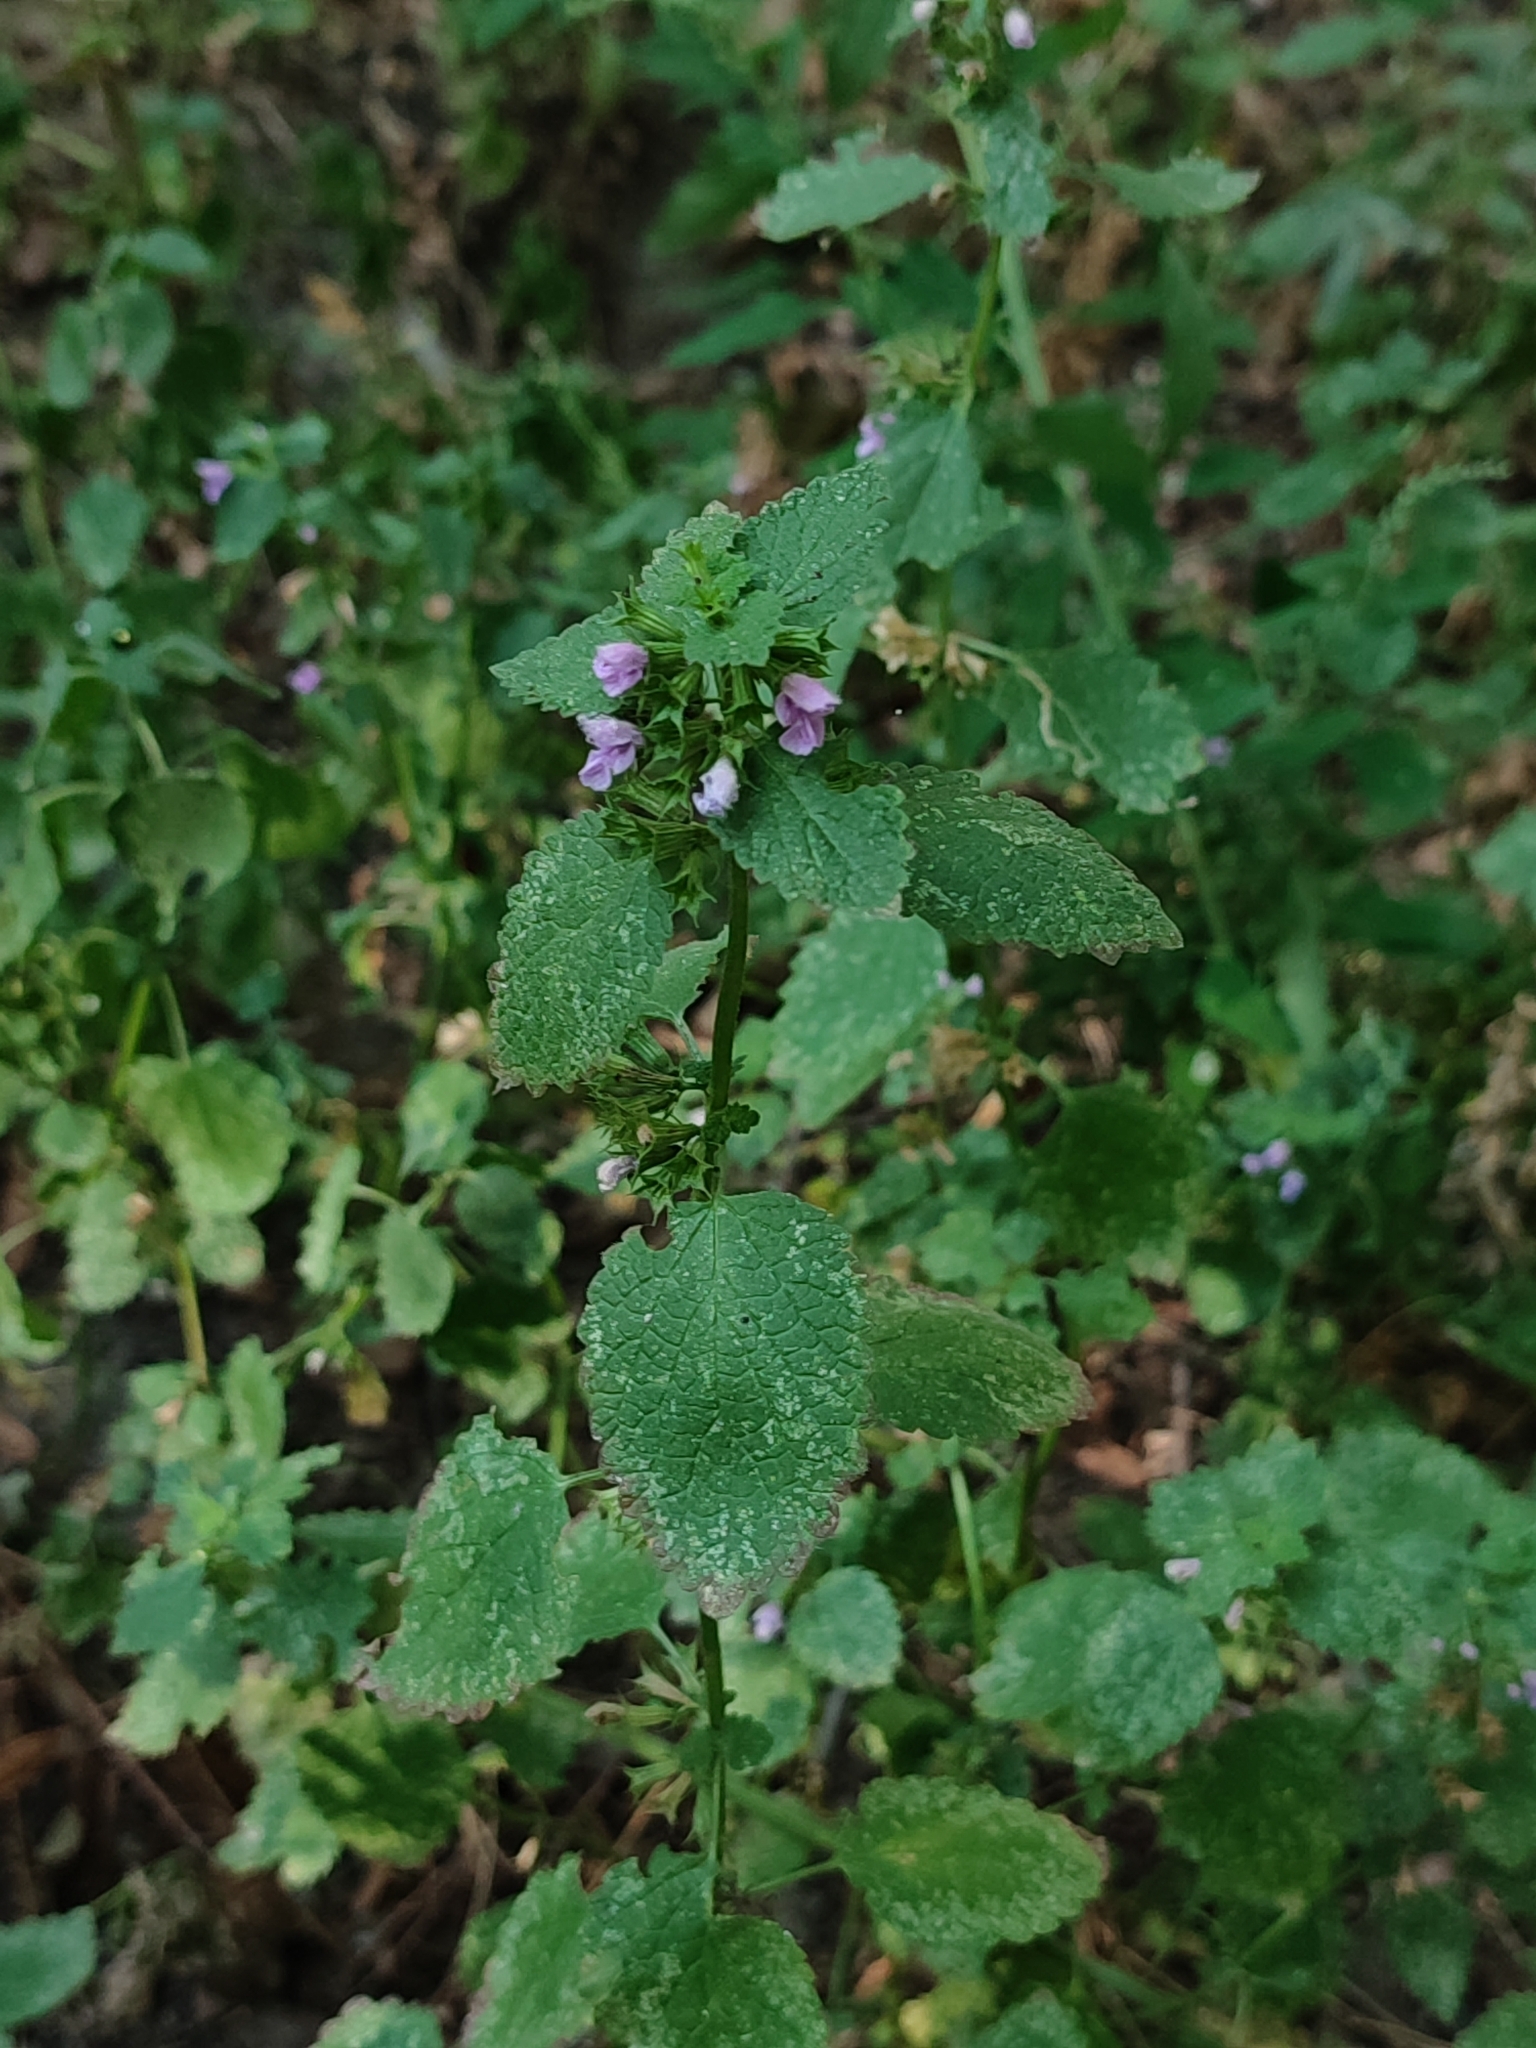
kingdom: Plantae
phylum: Tracheophyta
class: Magnoliopsida
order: Lamiales
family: Lamiaceae
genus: Ballota
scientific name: Ballota nigra
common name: Black horehound
